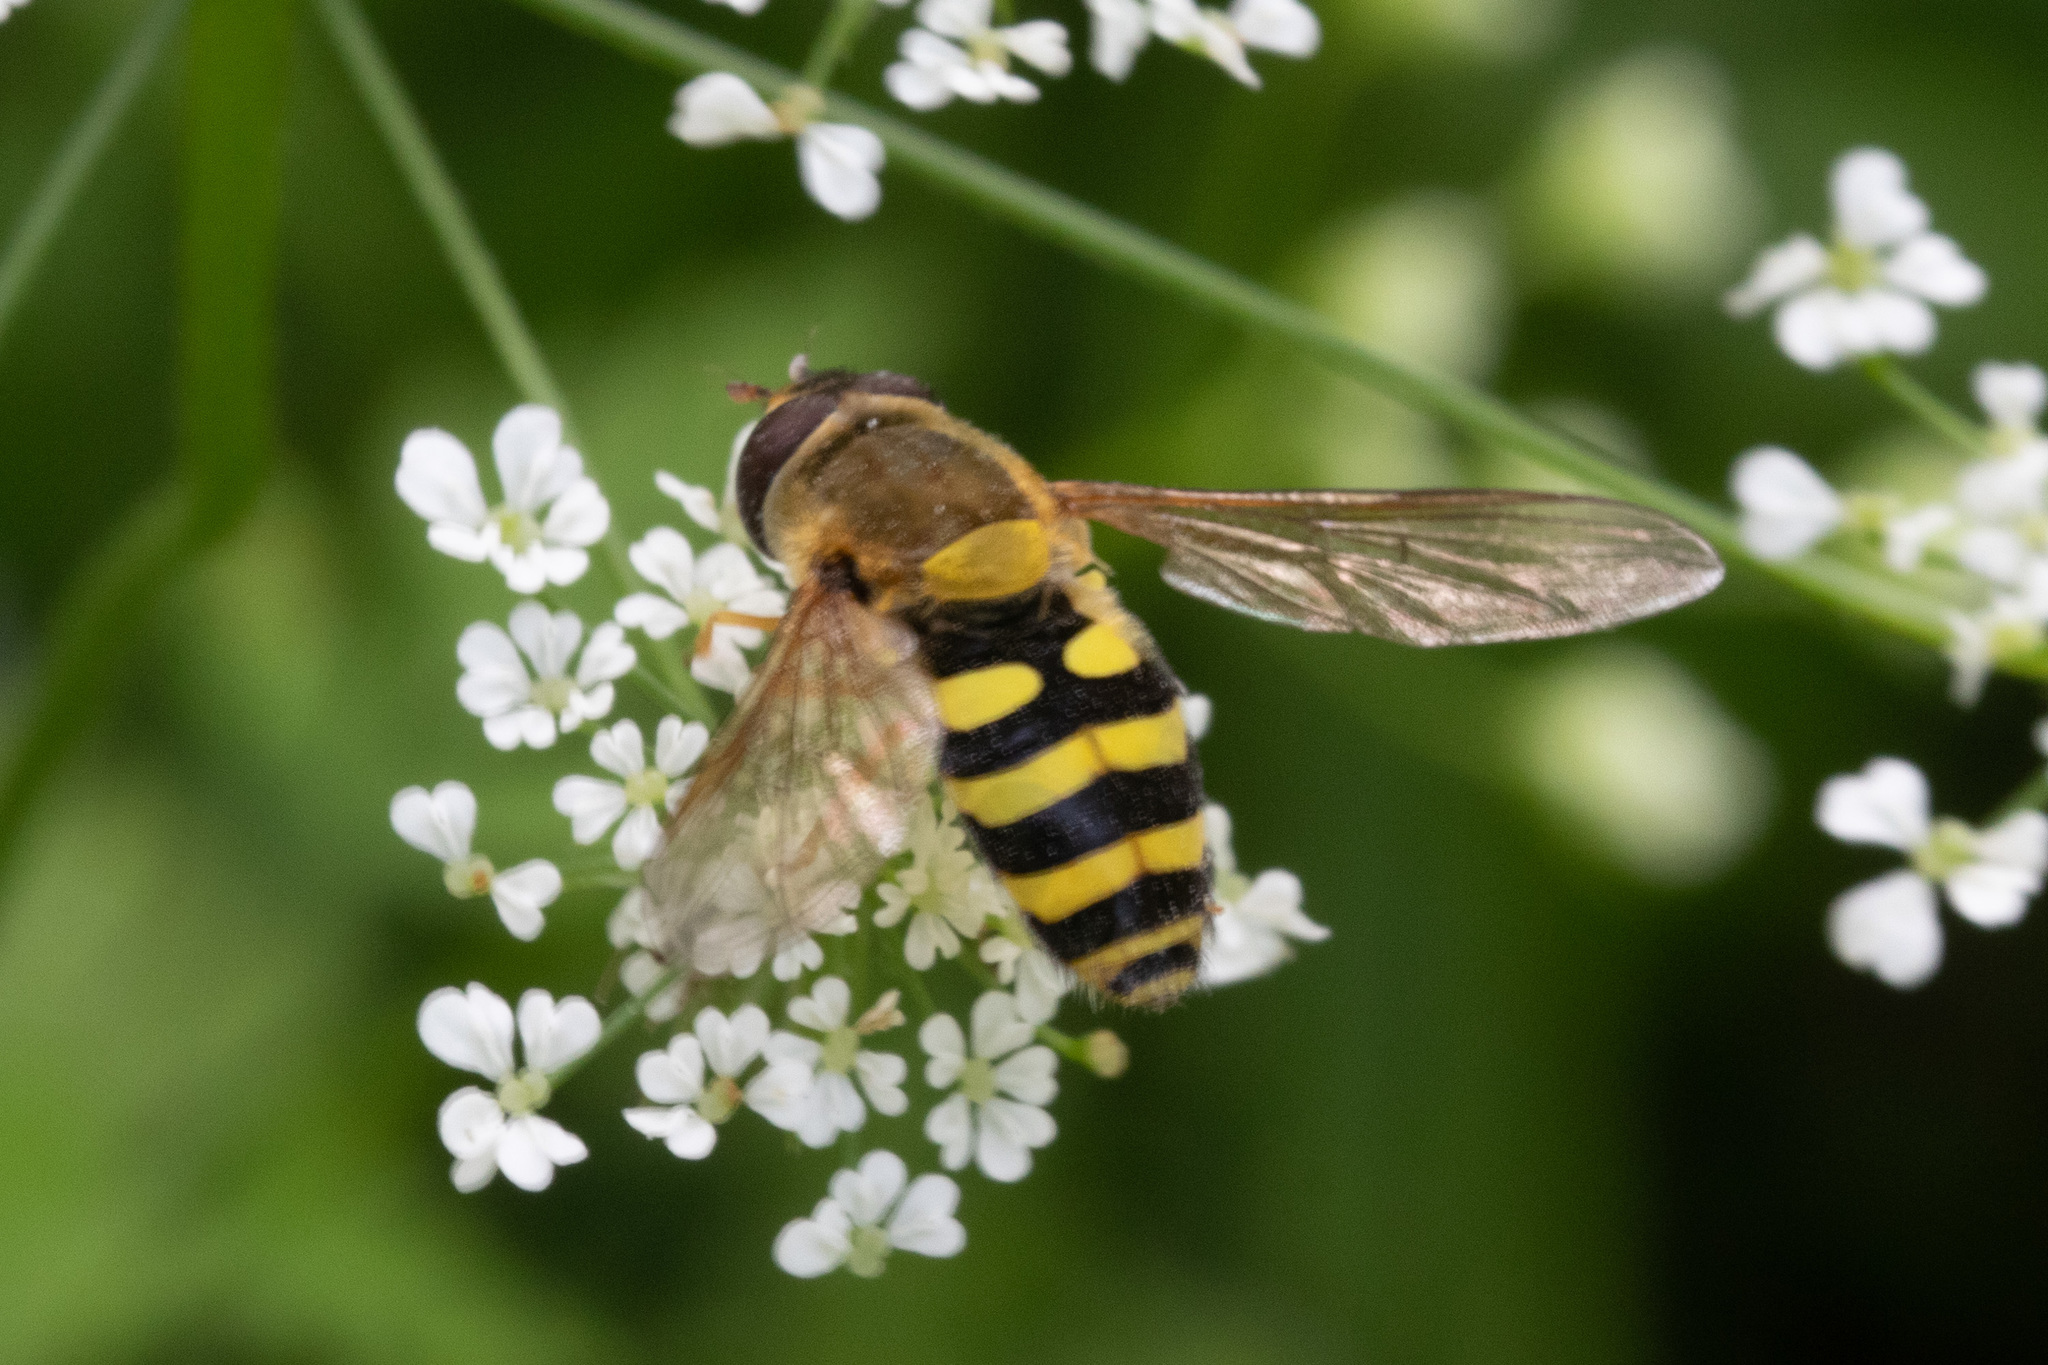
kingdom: Animalia
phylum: Arthropoda
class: Insecta
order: Diptera
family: Syrphidae
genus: Syrphus
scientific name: Syrphus
